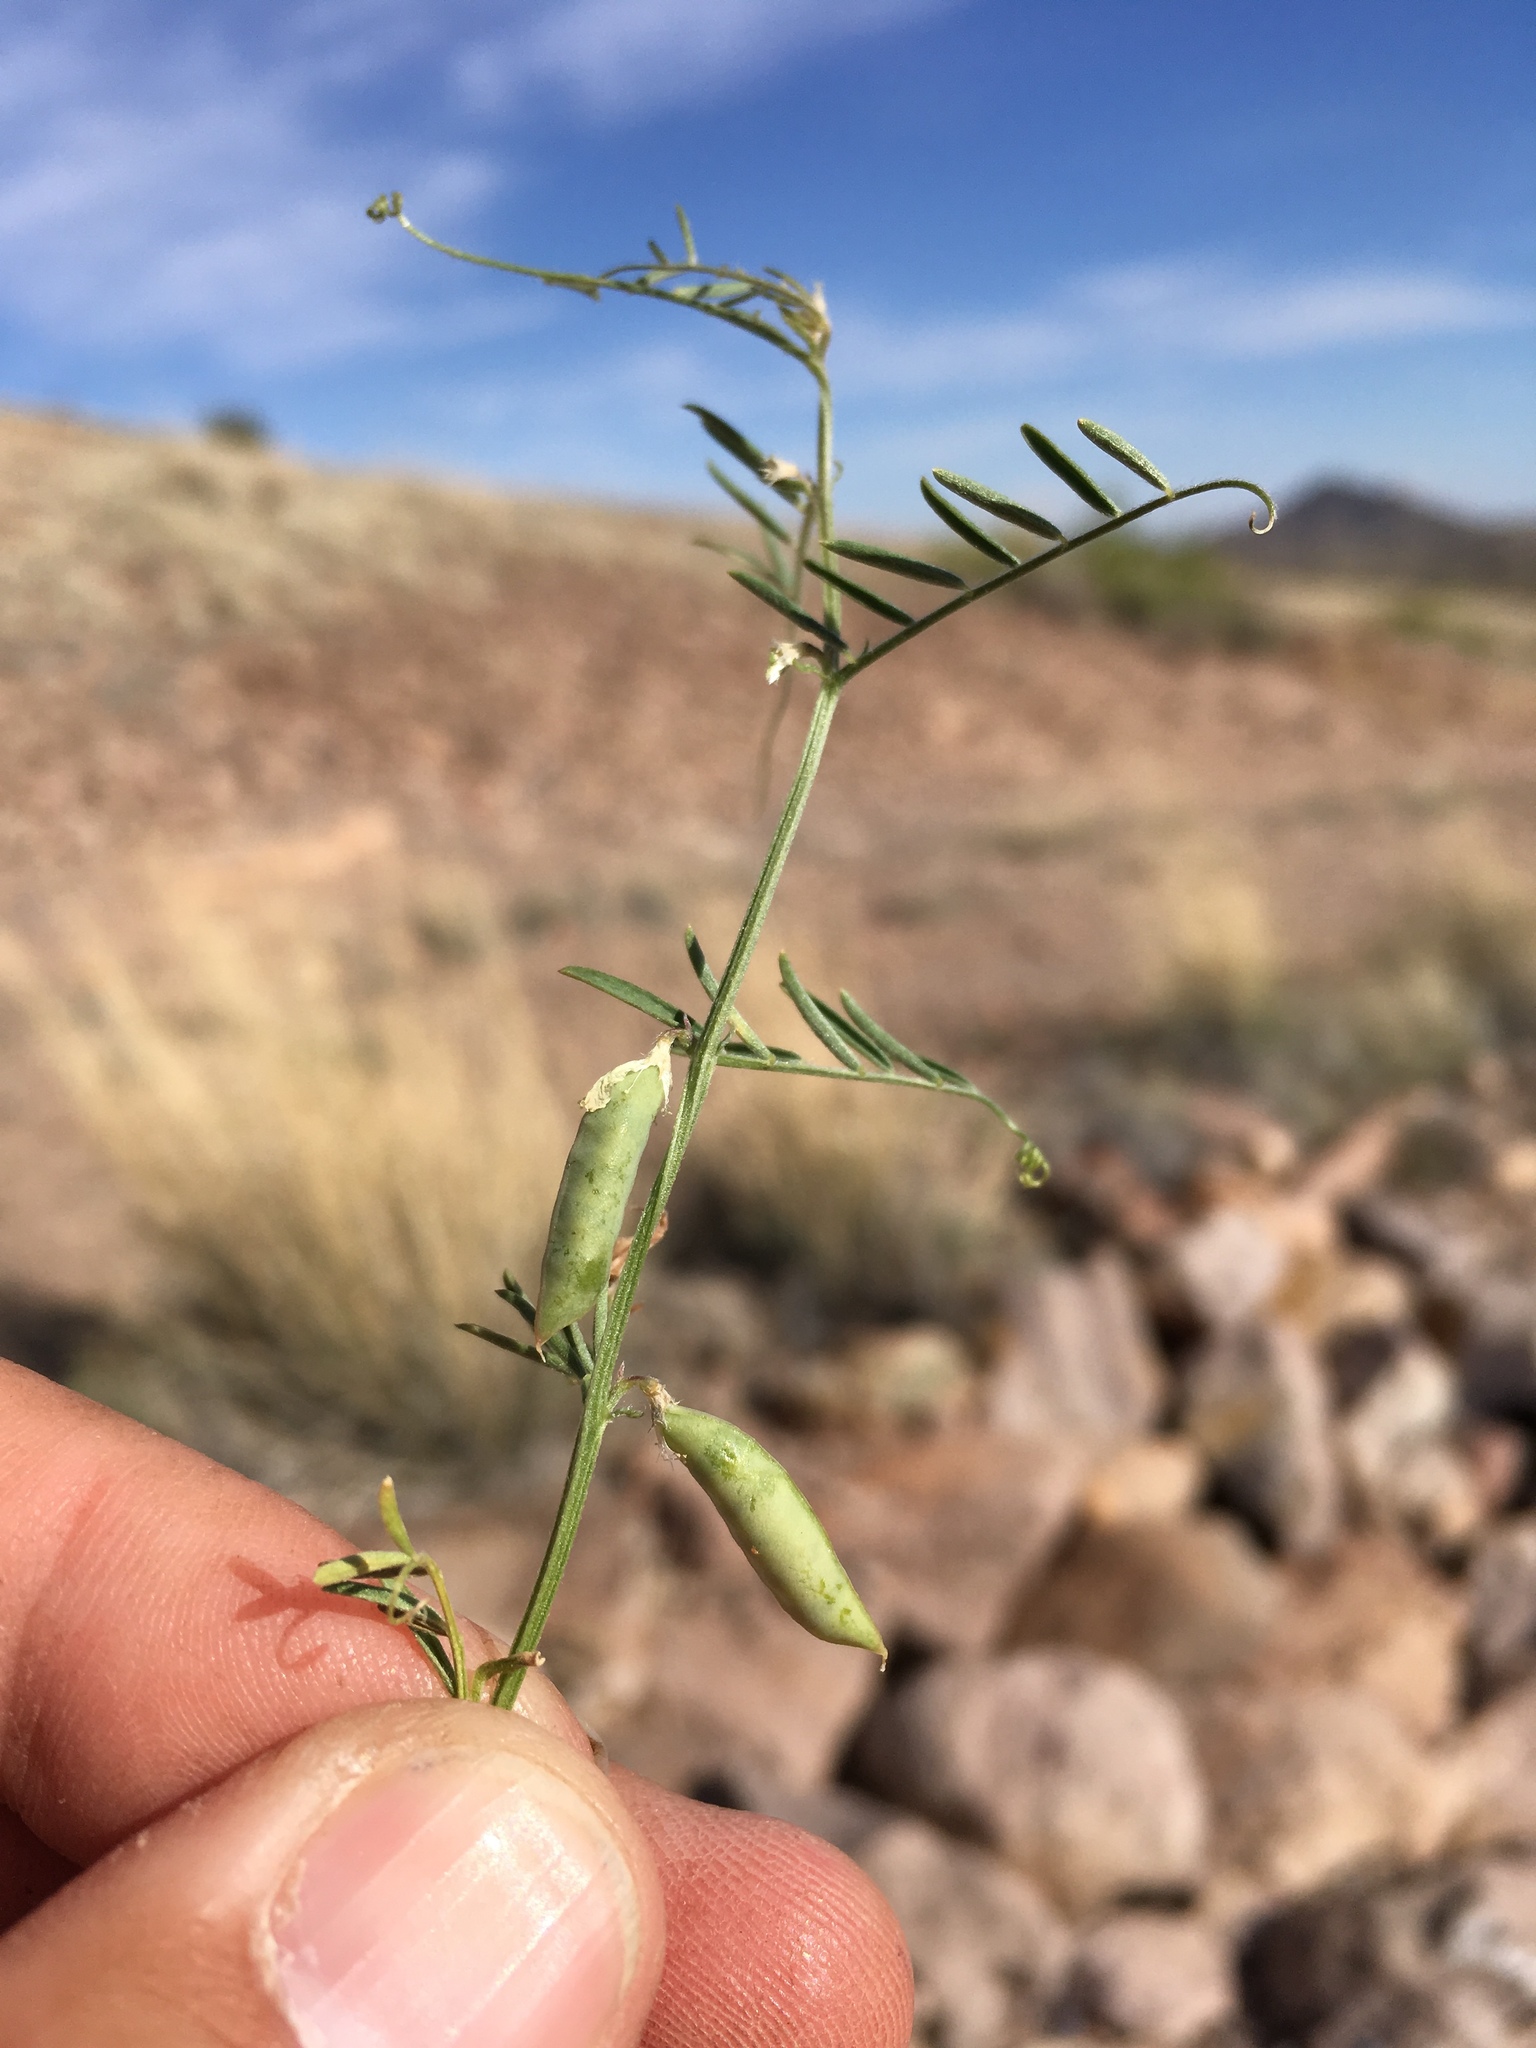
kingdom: Plantae
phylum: Tracheophyta
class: Magnoliopsida
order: Fabales
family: Fabaceae
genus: Vicia
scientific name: Vicia ludoviciana
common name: Louisiana vetch
